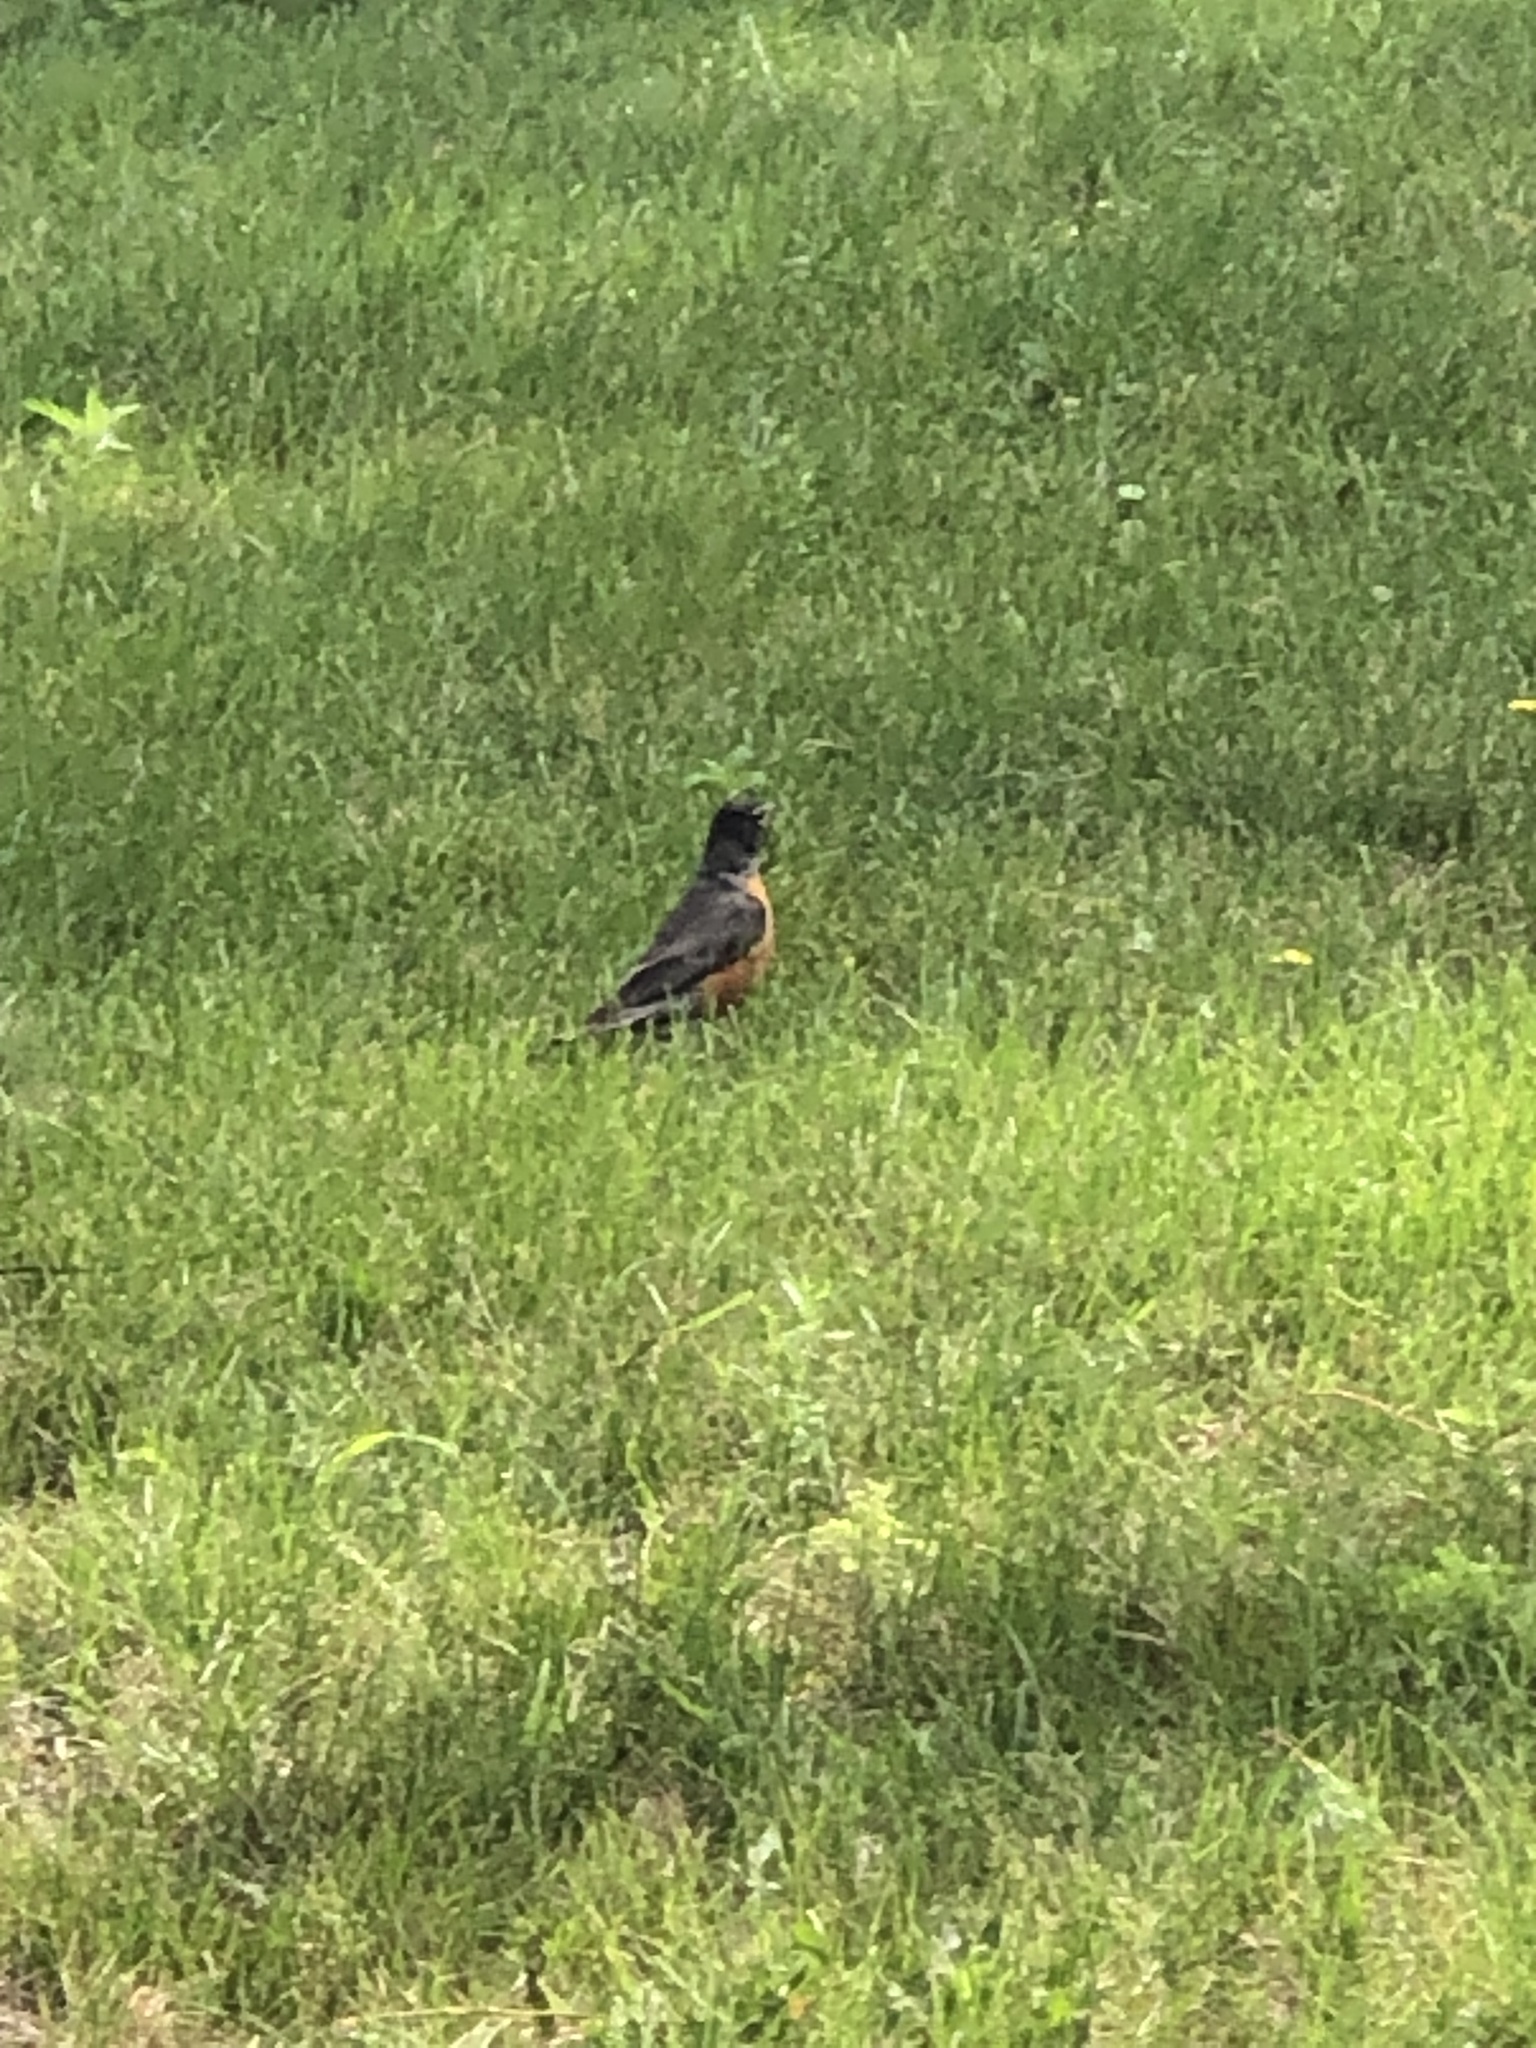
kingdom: Animalia
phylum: Chordata
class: Aves
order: Passeriformes
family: Turdidae
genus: Turdus
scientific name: Turdus migratorius
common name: American robin
